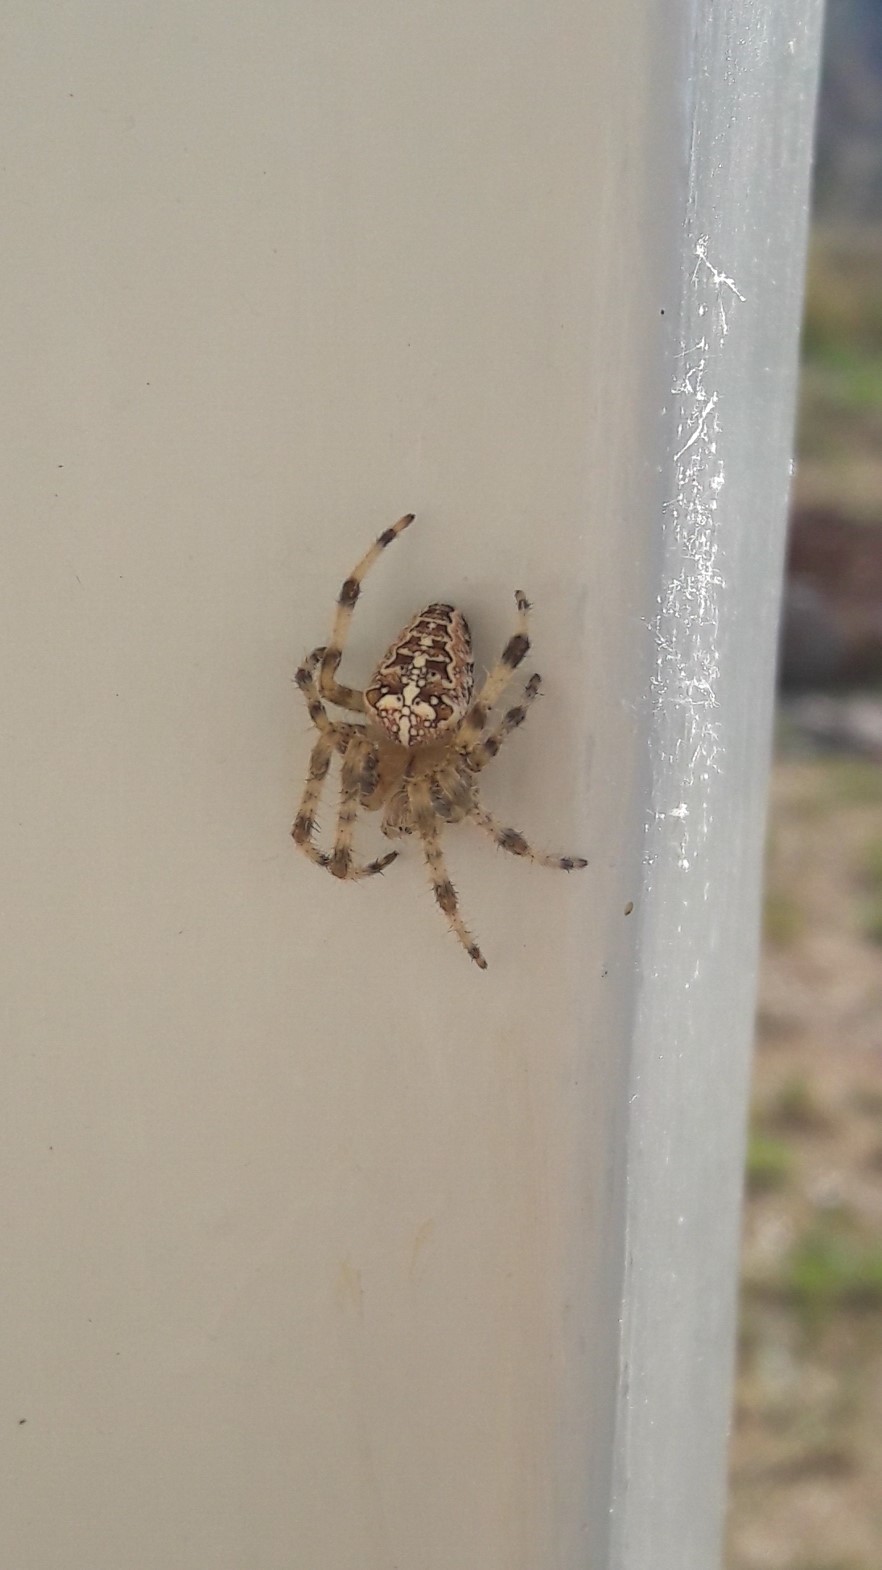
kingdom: Animalia
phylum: Arthropoda
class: Arachnida
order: Araneae
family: Araneidae
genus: Araneus
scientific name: Araneus diadematus
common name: Cross orbweaver
